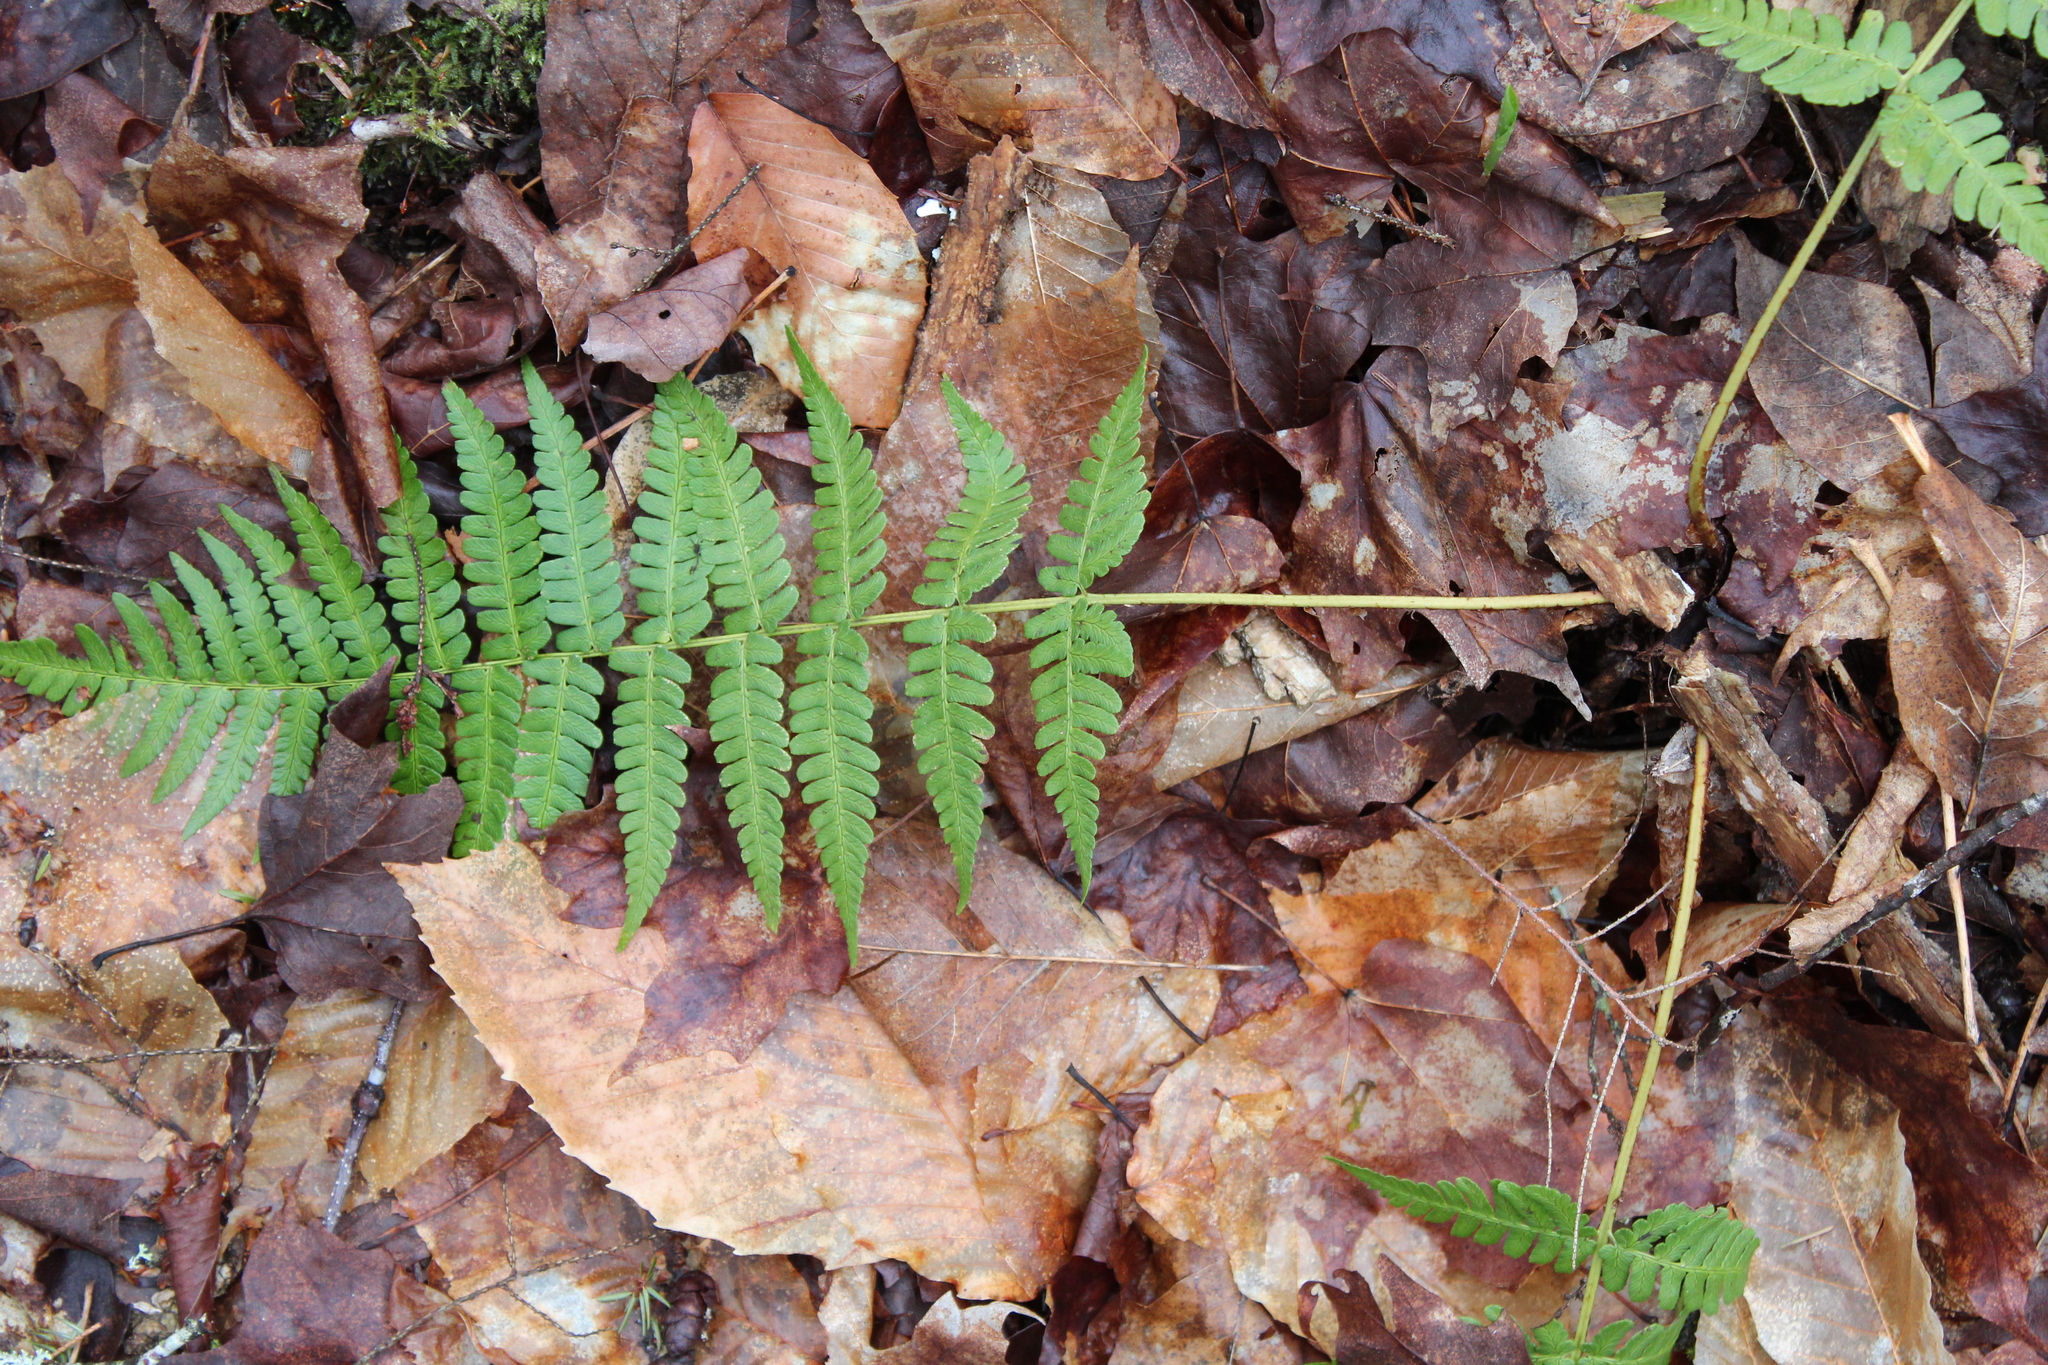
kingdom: Plantae
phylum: Tracheophyta
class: Polypodiopsida
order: Polypodiales
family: Dryopteridaceae
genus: Dryopteris
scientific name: Dryopteris marginalis
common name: Marginal wood fern
